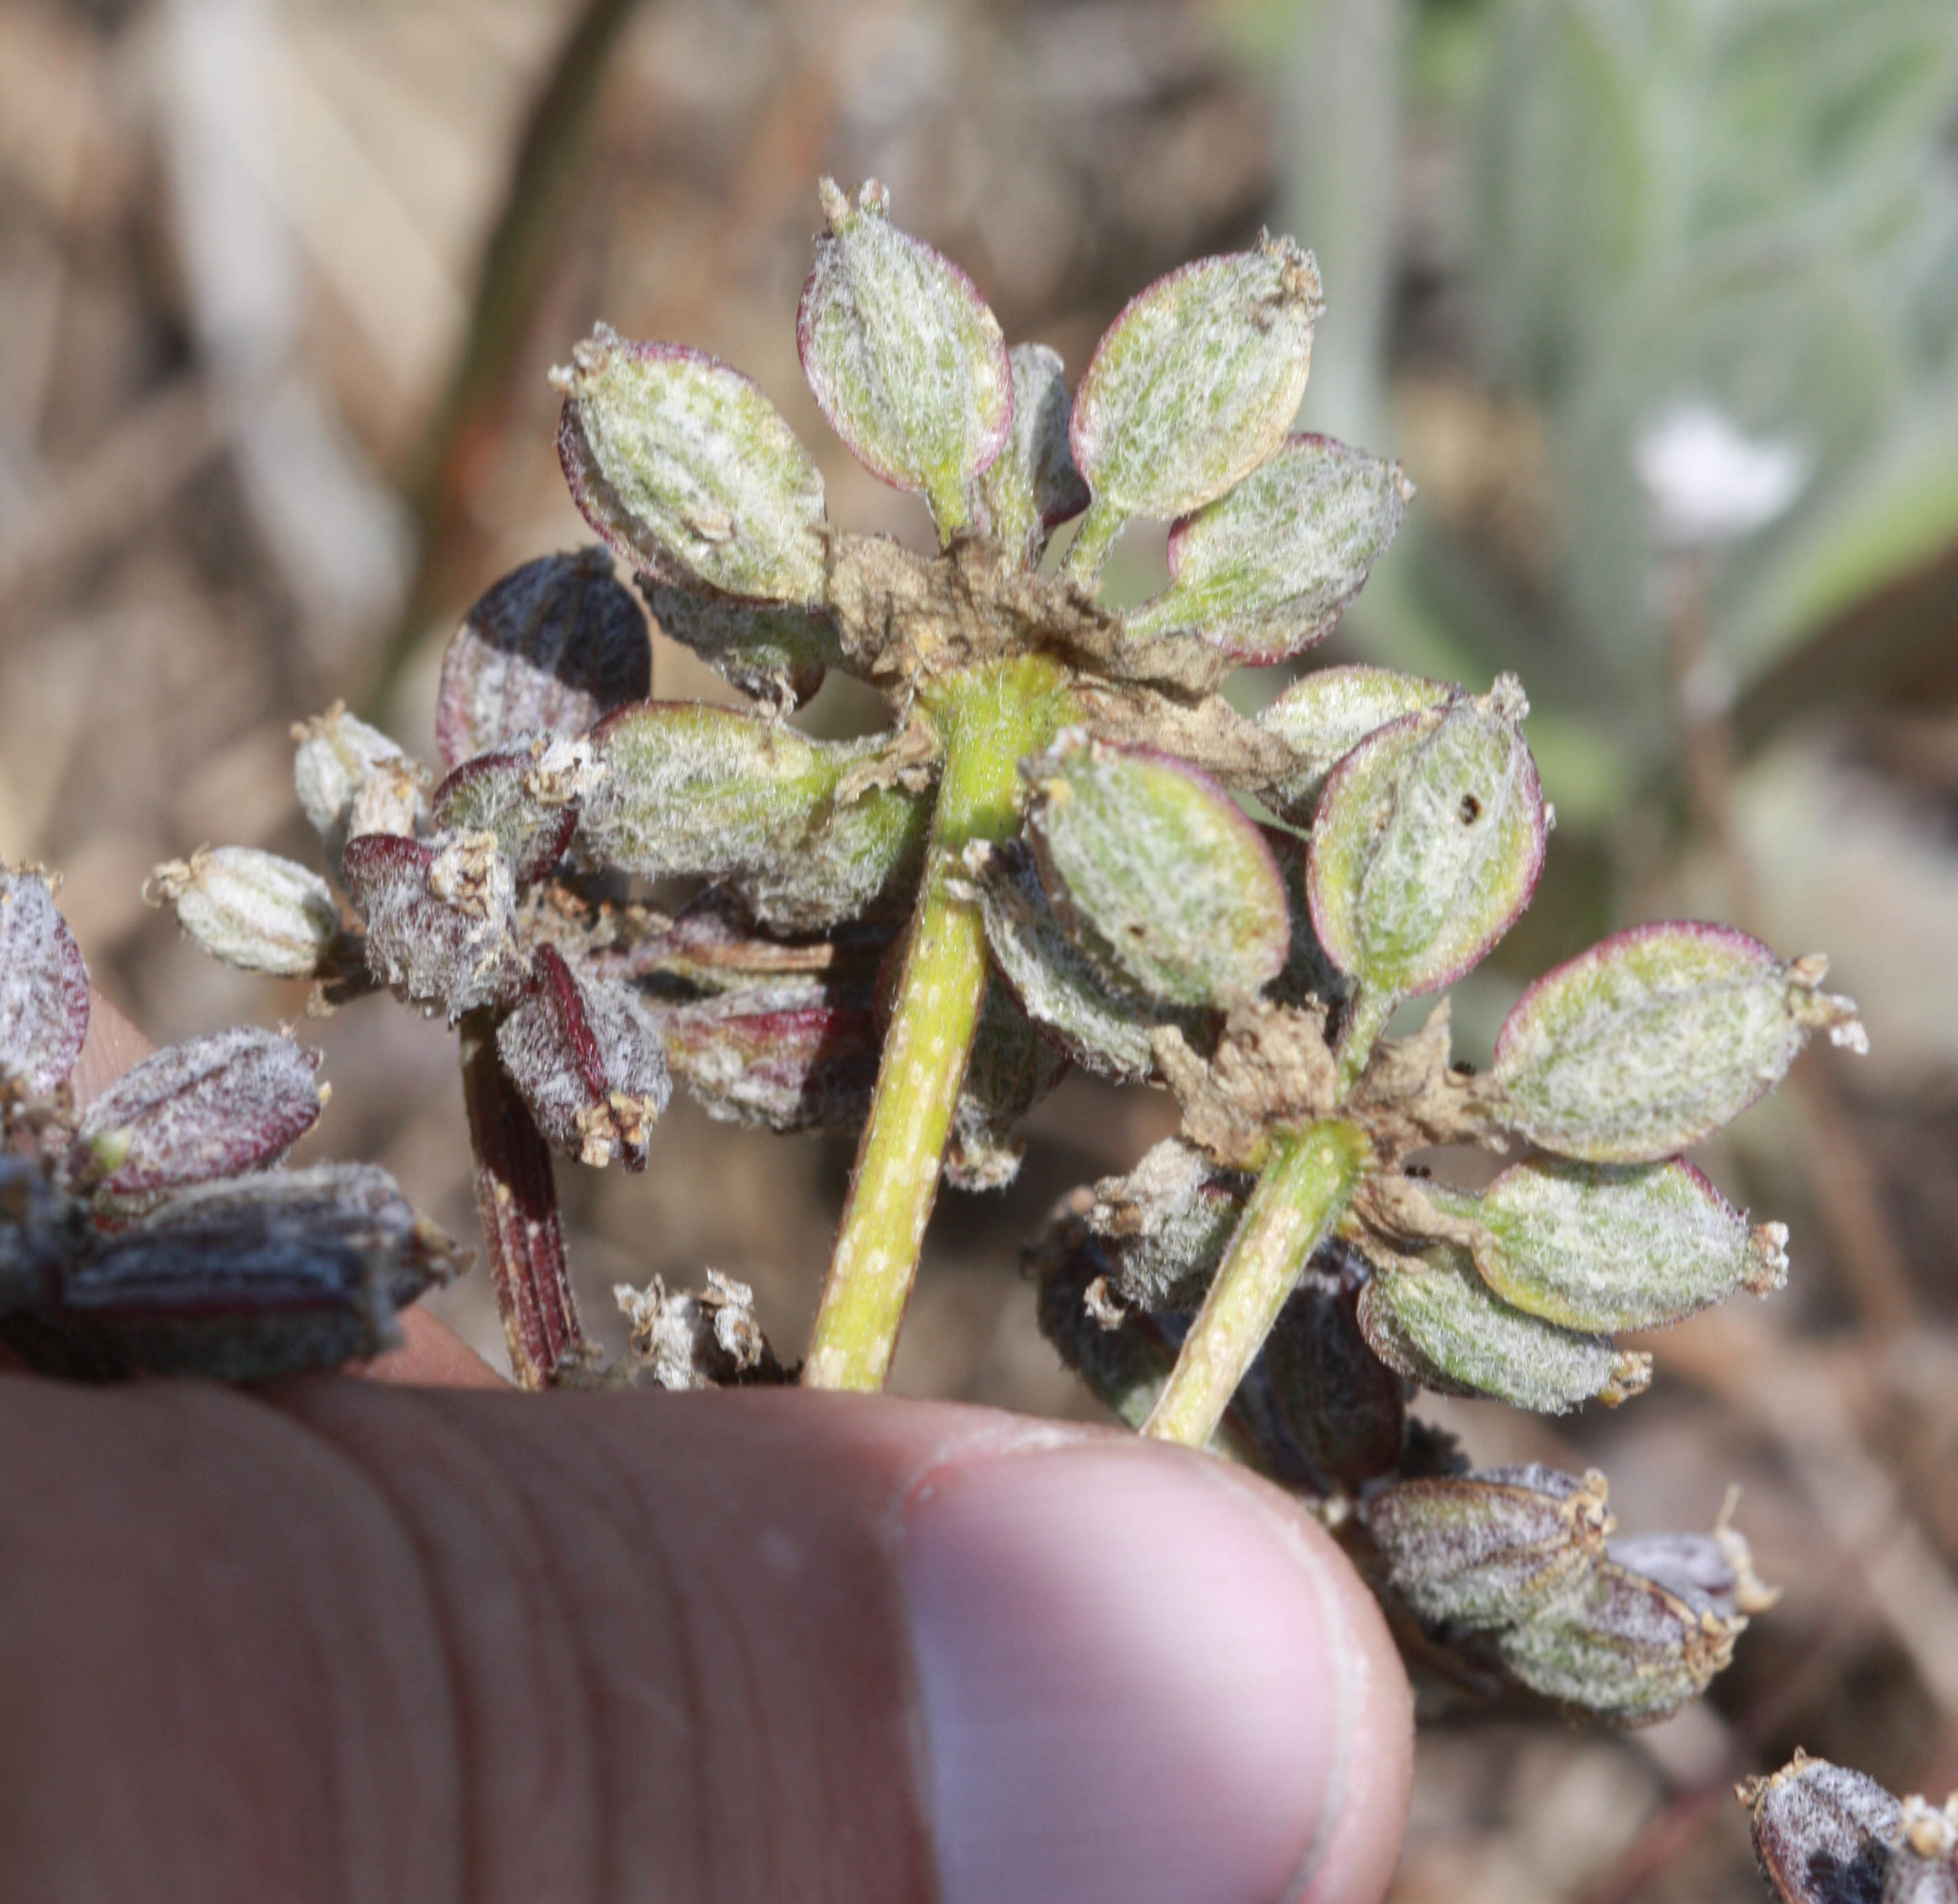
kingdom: Plantae
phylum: Tracheophyta
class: Magnoliopsida
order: Apiales
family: Apiaceae
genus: Lomatium
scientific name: Lomatium dasycarpum
